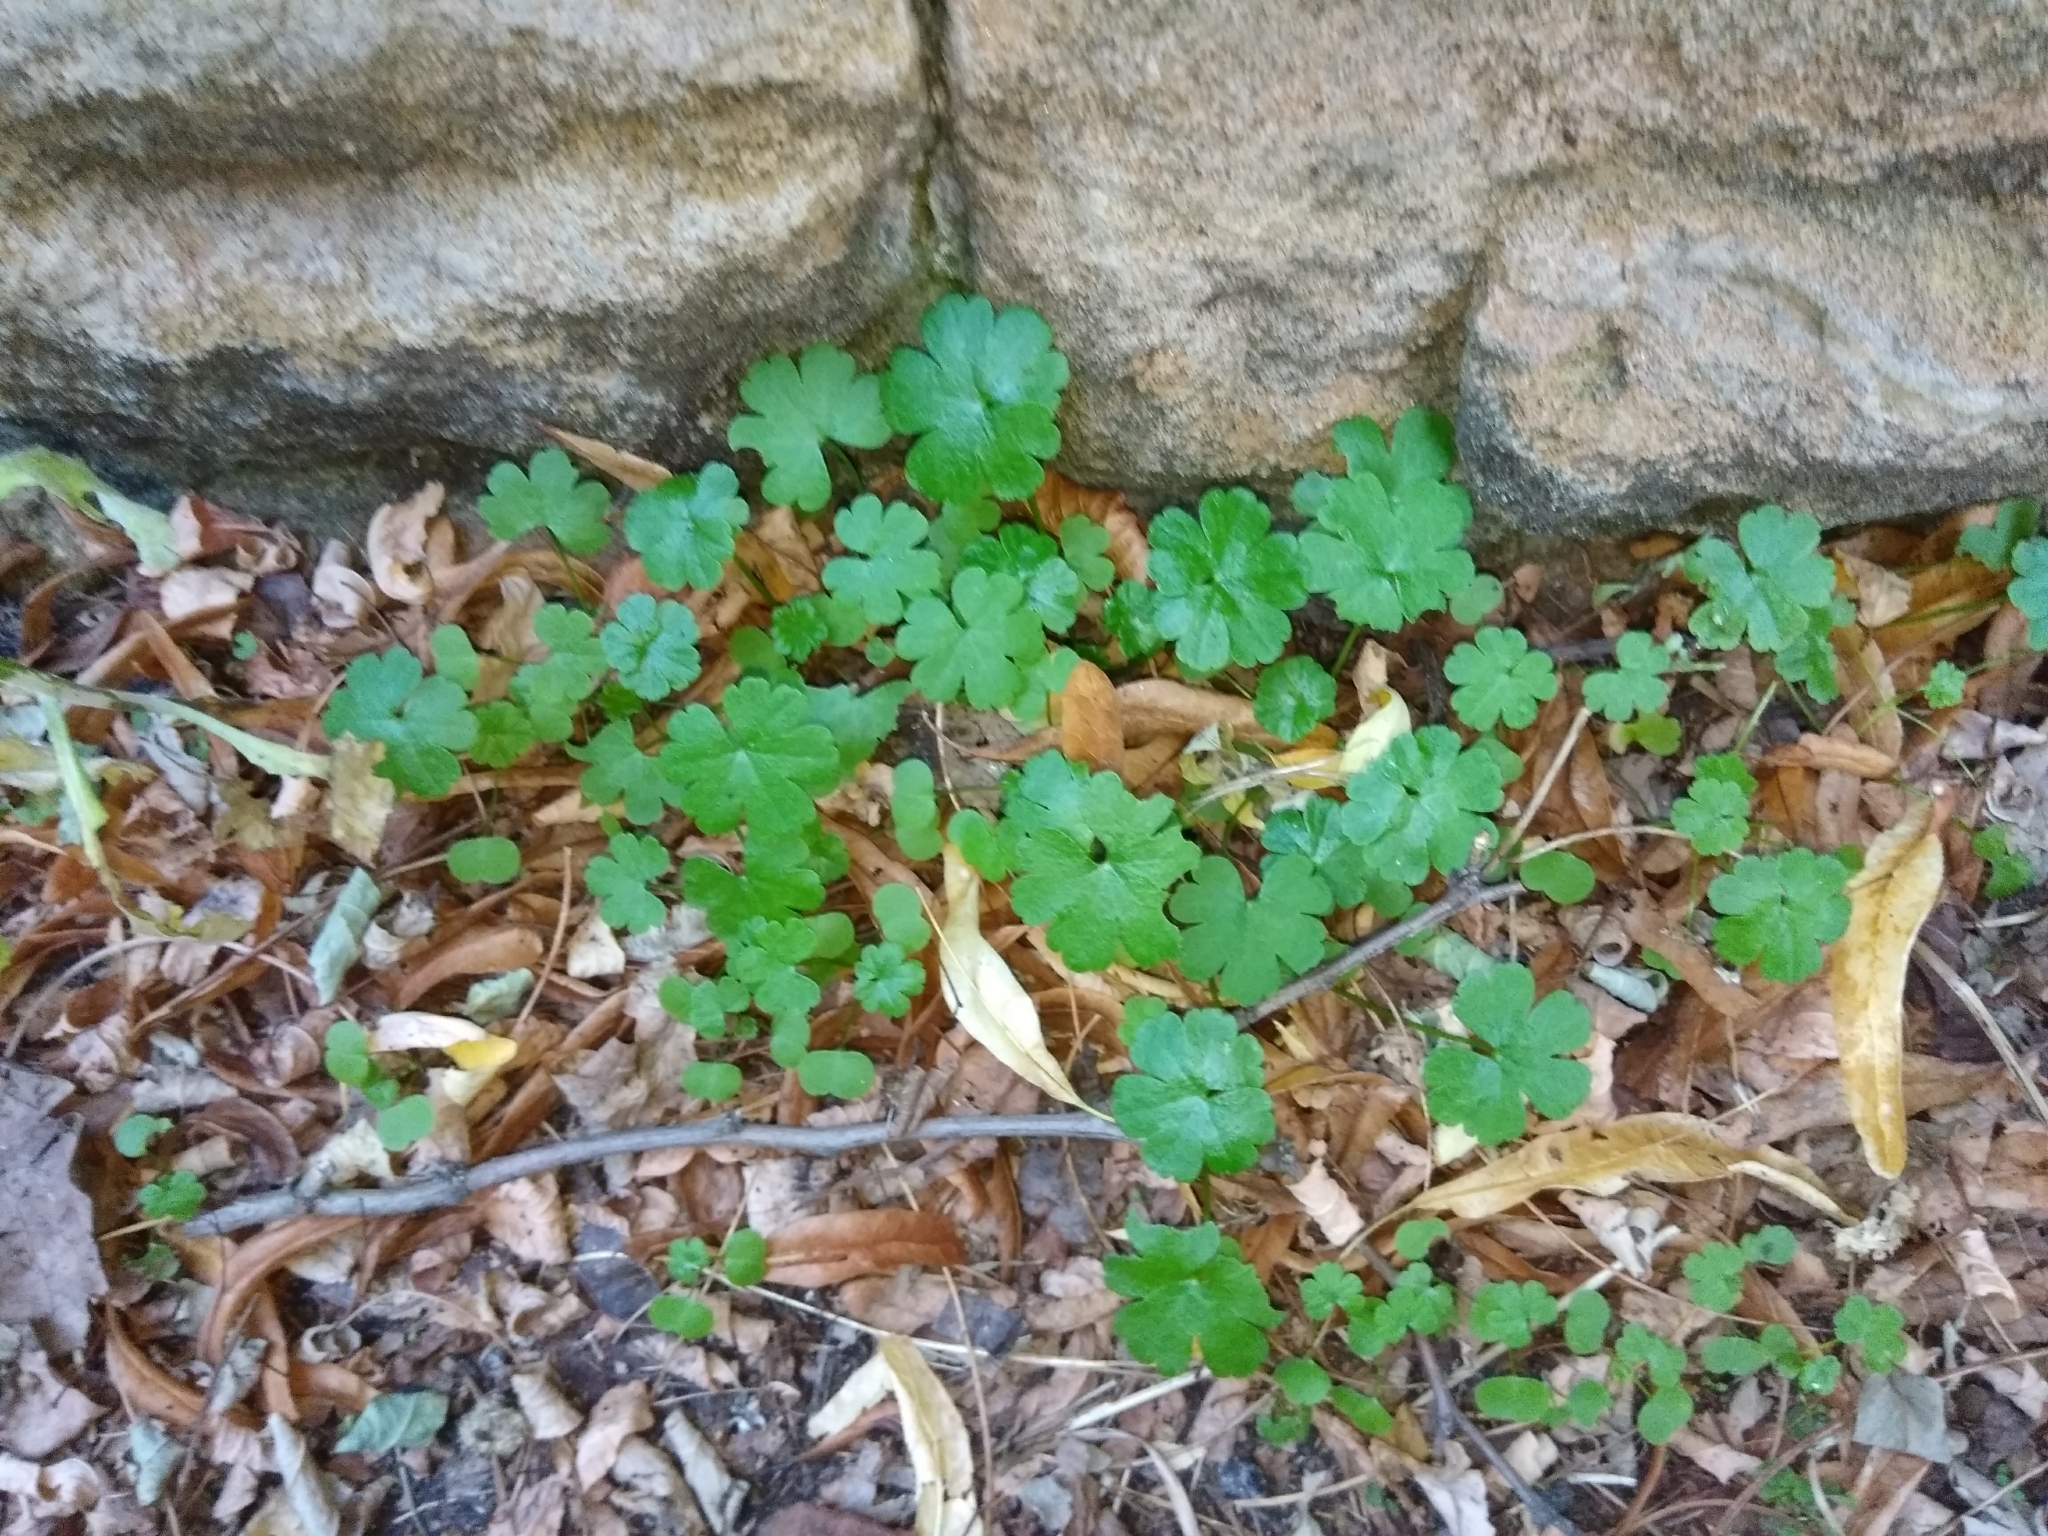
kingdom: Plantae
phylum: Tracheophyta
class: Magnoliopsida
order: Geraniales
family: Geraniaceae
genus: Geranium
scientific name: Geranium lucidum
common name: Shining crane's-bill
